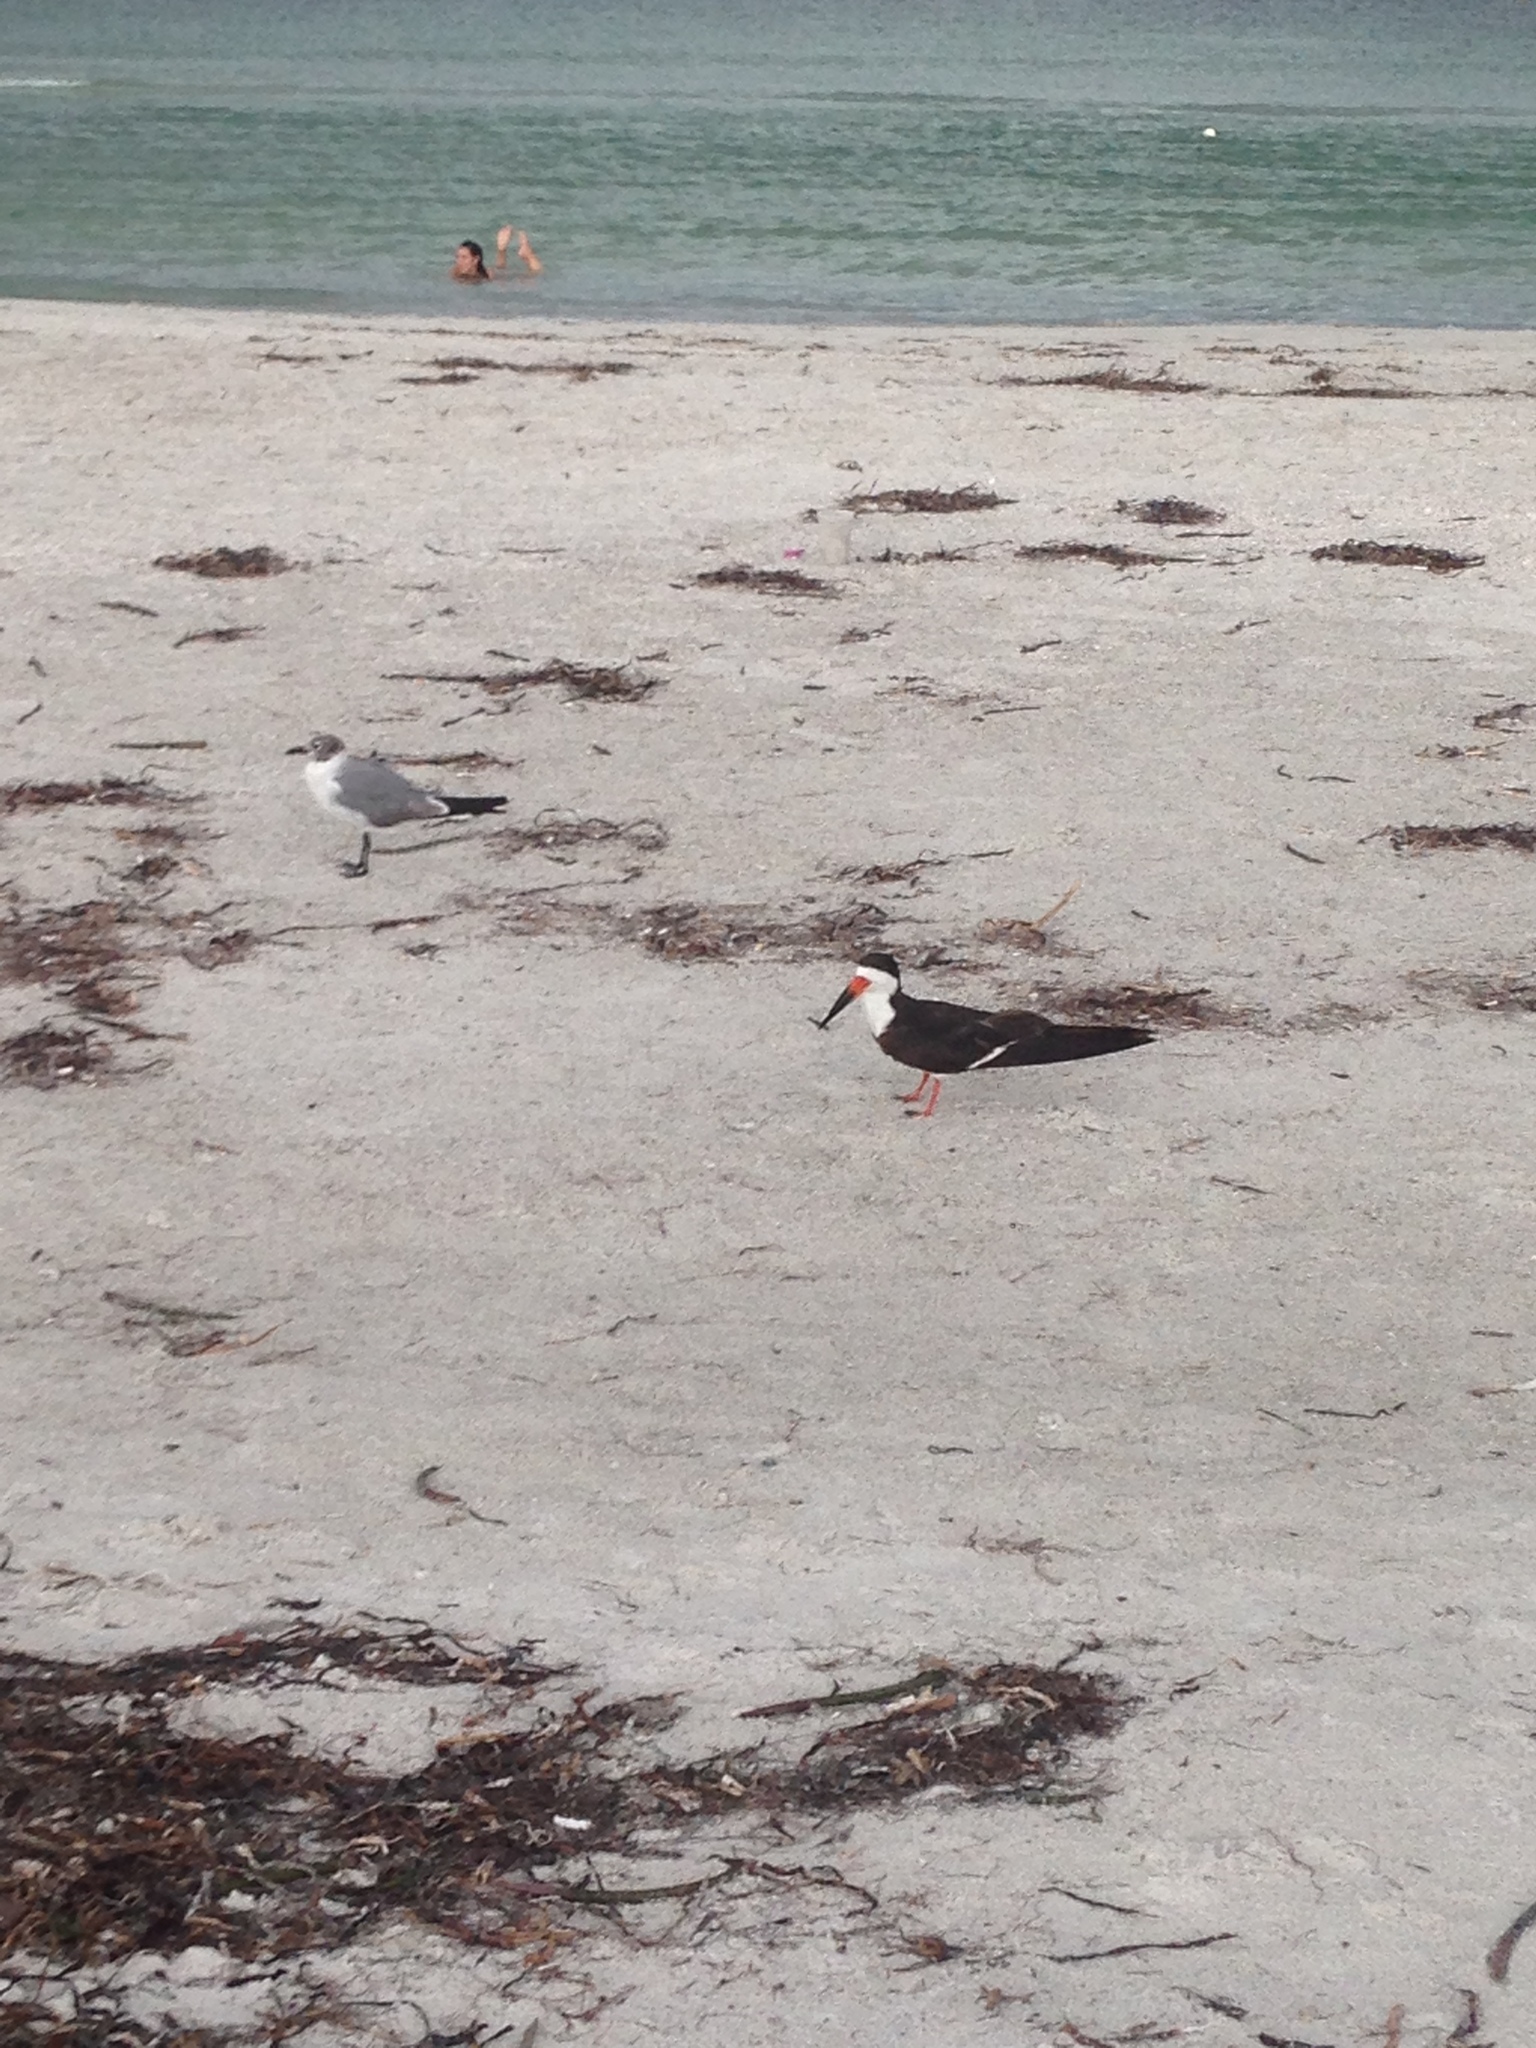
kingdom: Animalia
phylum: Chordata
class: Aves
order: Charadriiformes
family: Laridae
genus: Leucophaeus
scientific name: Leucophaeus atricilla
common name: Laughing gull
